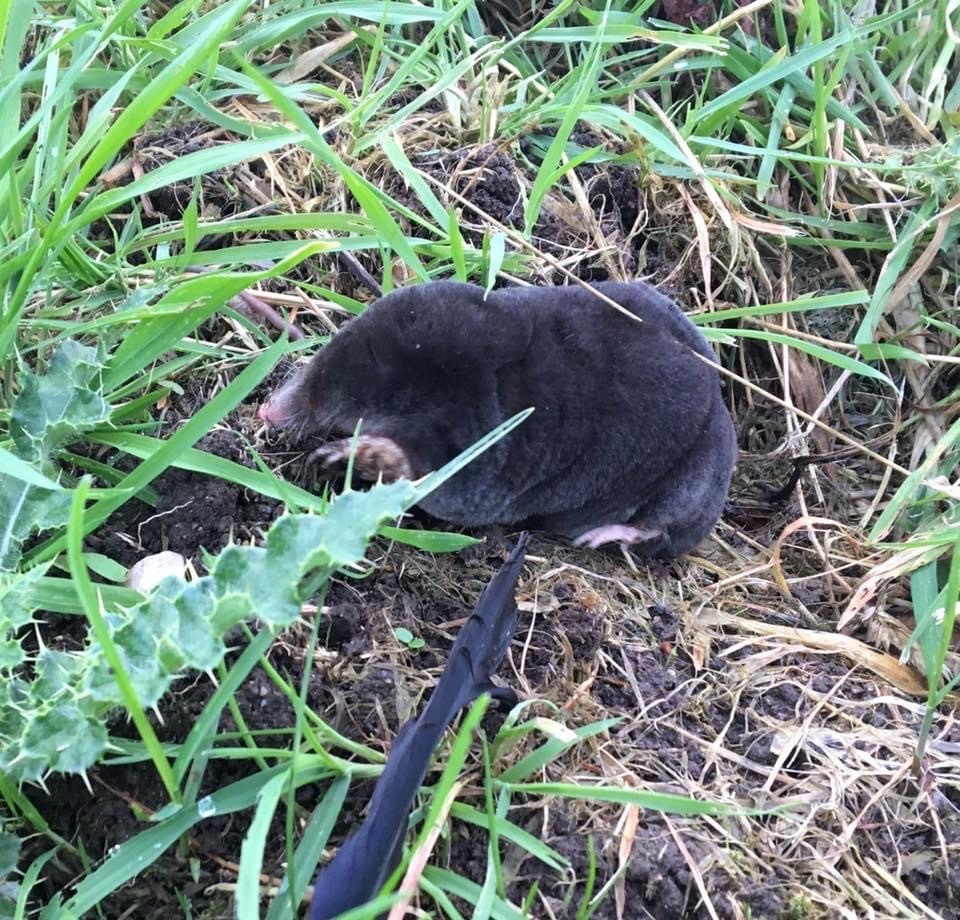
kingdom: Animalia
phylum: Chordata
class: Mammalia
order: Soricomorpha
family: Talpidae
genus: Talpa
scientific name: Talpa europaea
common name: European mole
